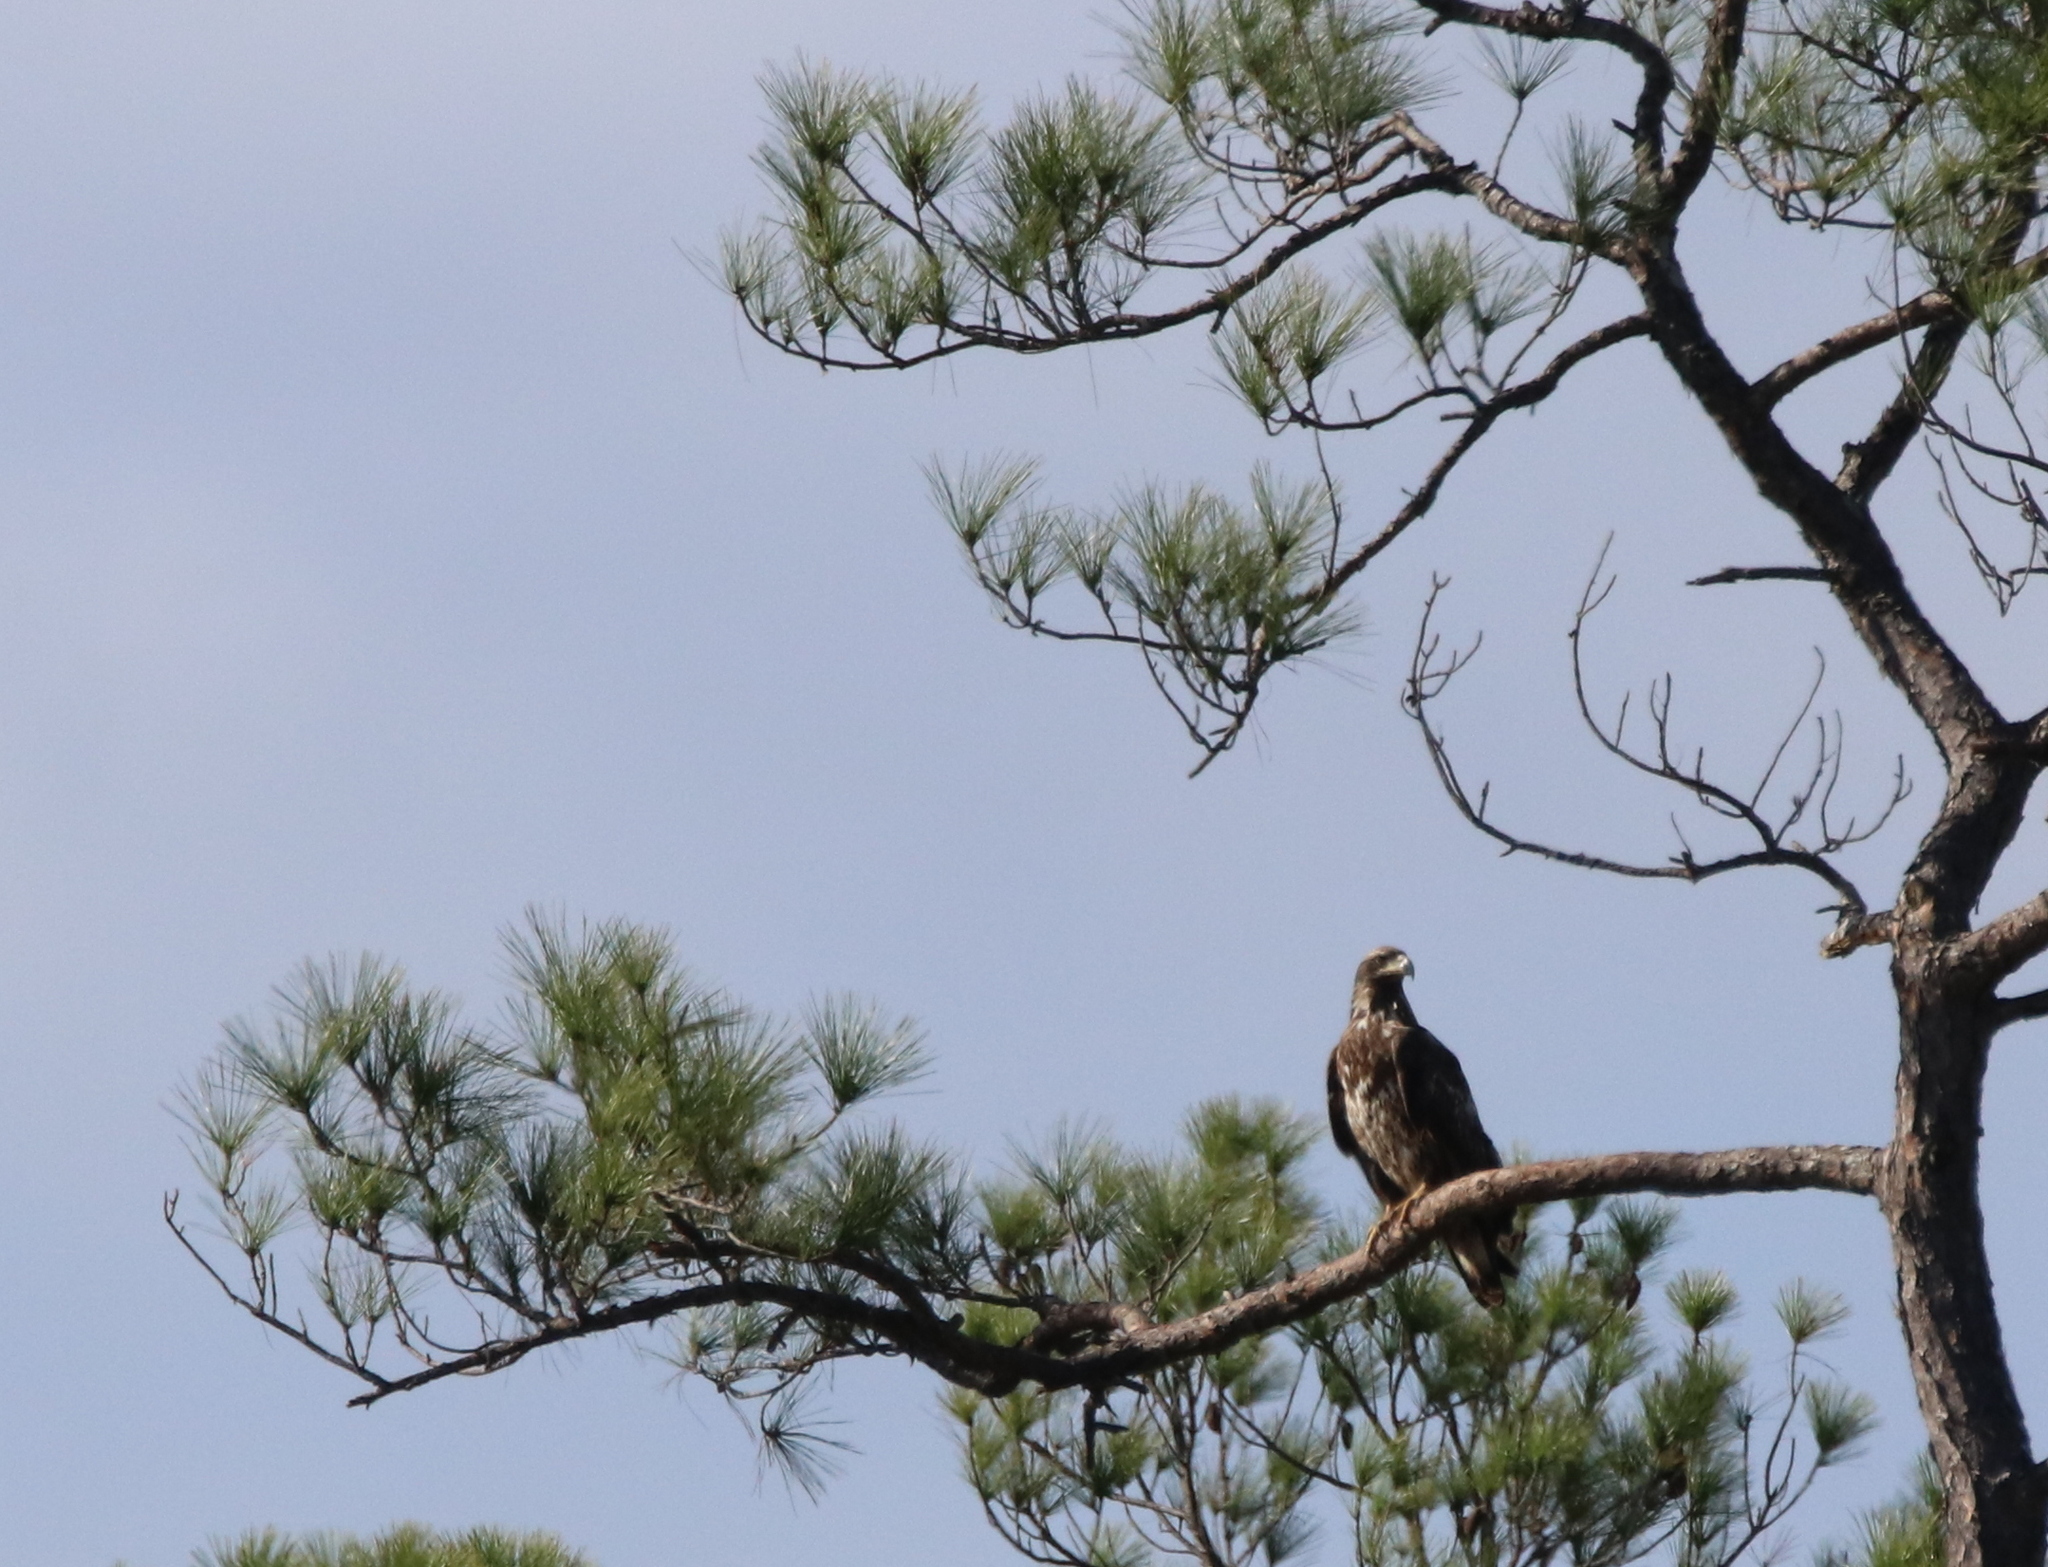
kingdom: Animalia
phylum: Chordata
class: Aves
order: Accipitriformes
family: Accipitridae
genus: Haliaeetus
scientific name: Haliaeetus leucocephalus
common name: Bald eagle
